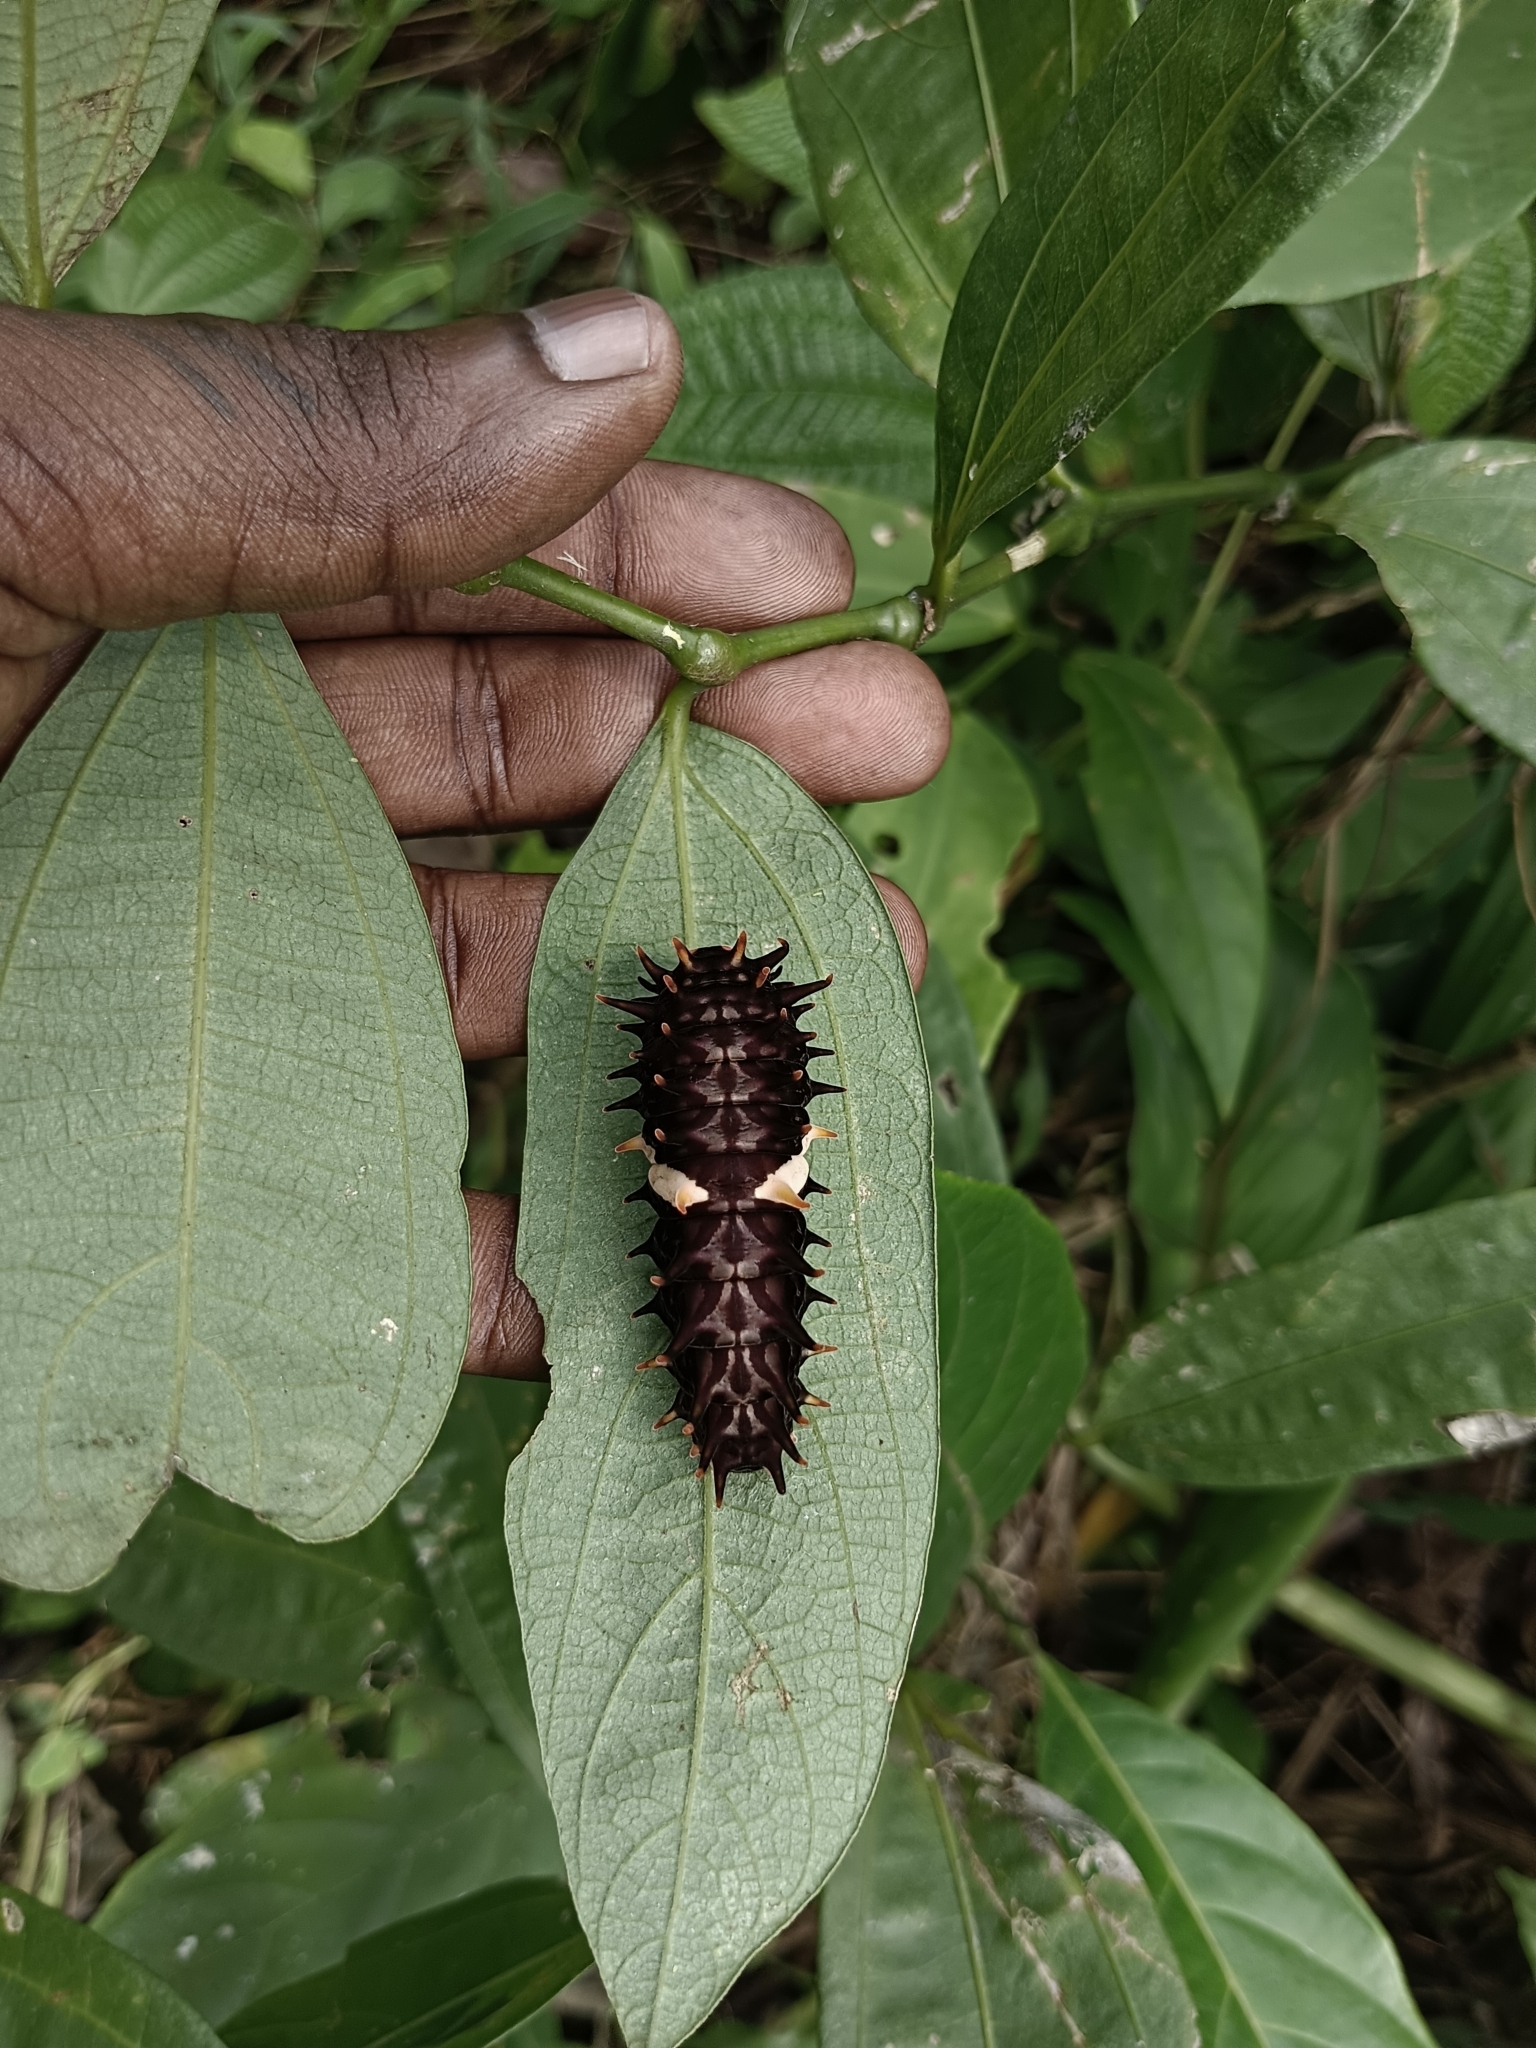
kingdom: Animalia
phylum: Arthropoda
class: Insecta
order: Lepidoptera
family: Papilionidae
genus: Troides
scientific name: Troides minos
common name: Malabar birdwing
